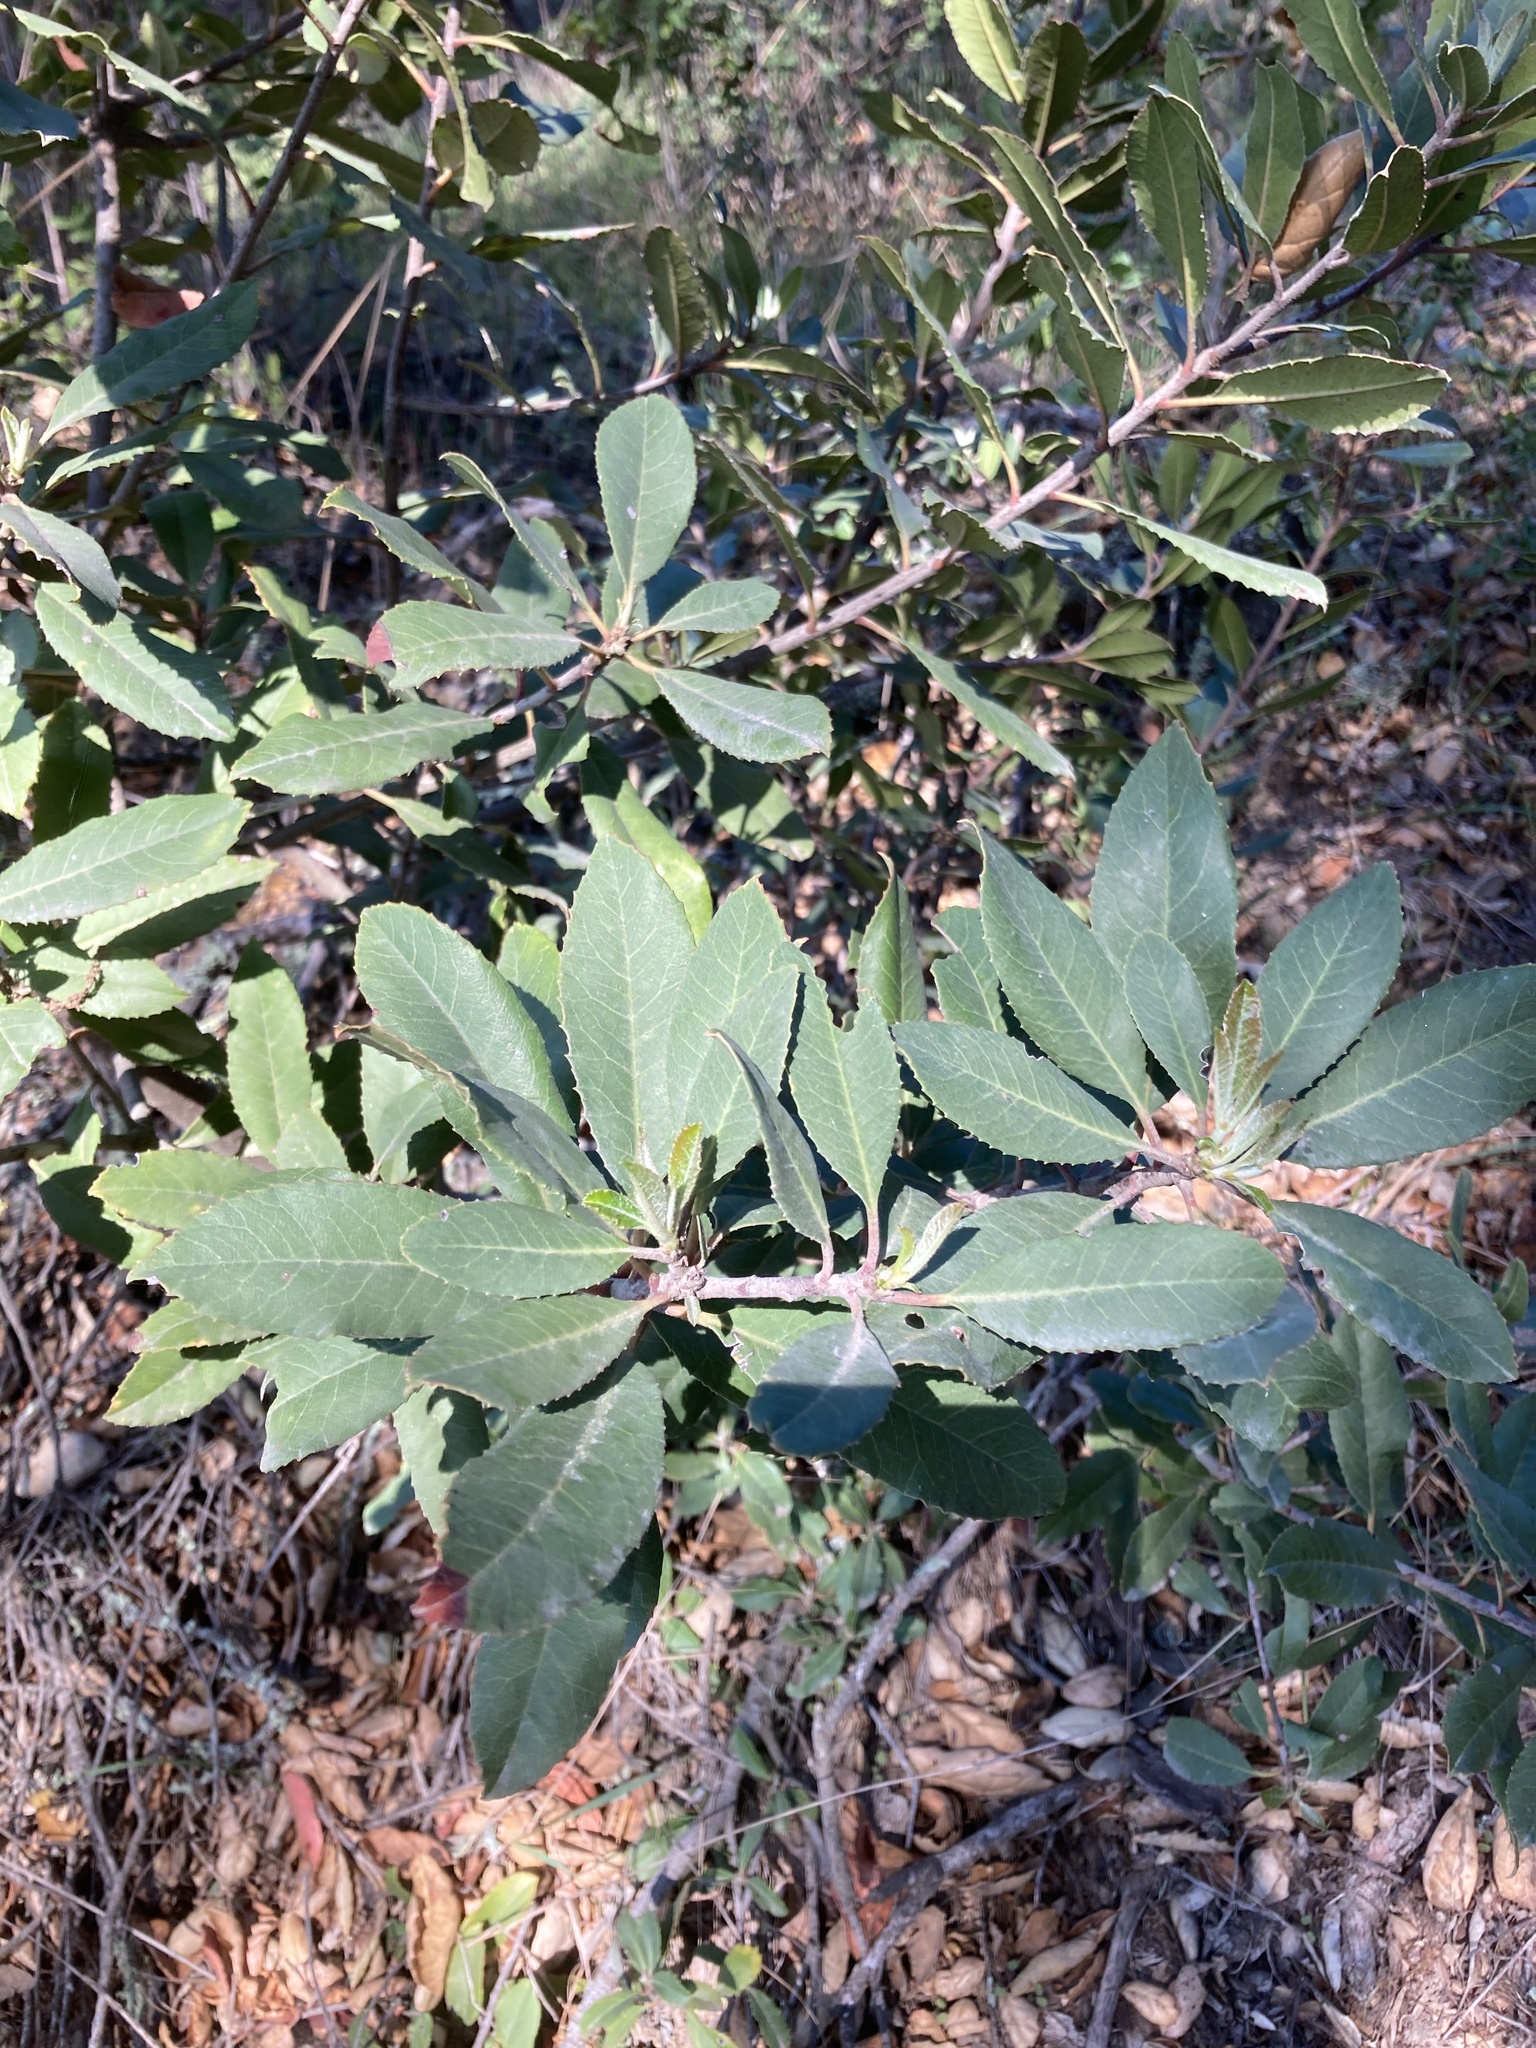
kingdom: Plantae
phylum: Tracheophyta
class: Magnoliopsida
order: Rosales
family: Rosaceae
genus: Heteromeles
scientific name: Heteromeles arbutifolia
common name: California-holly
